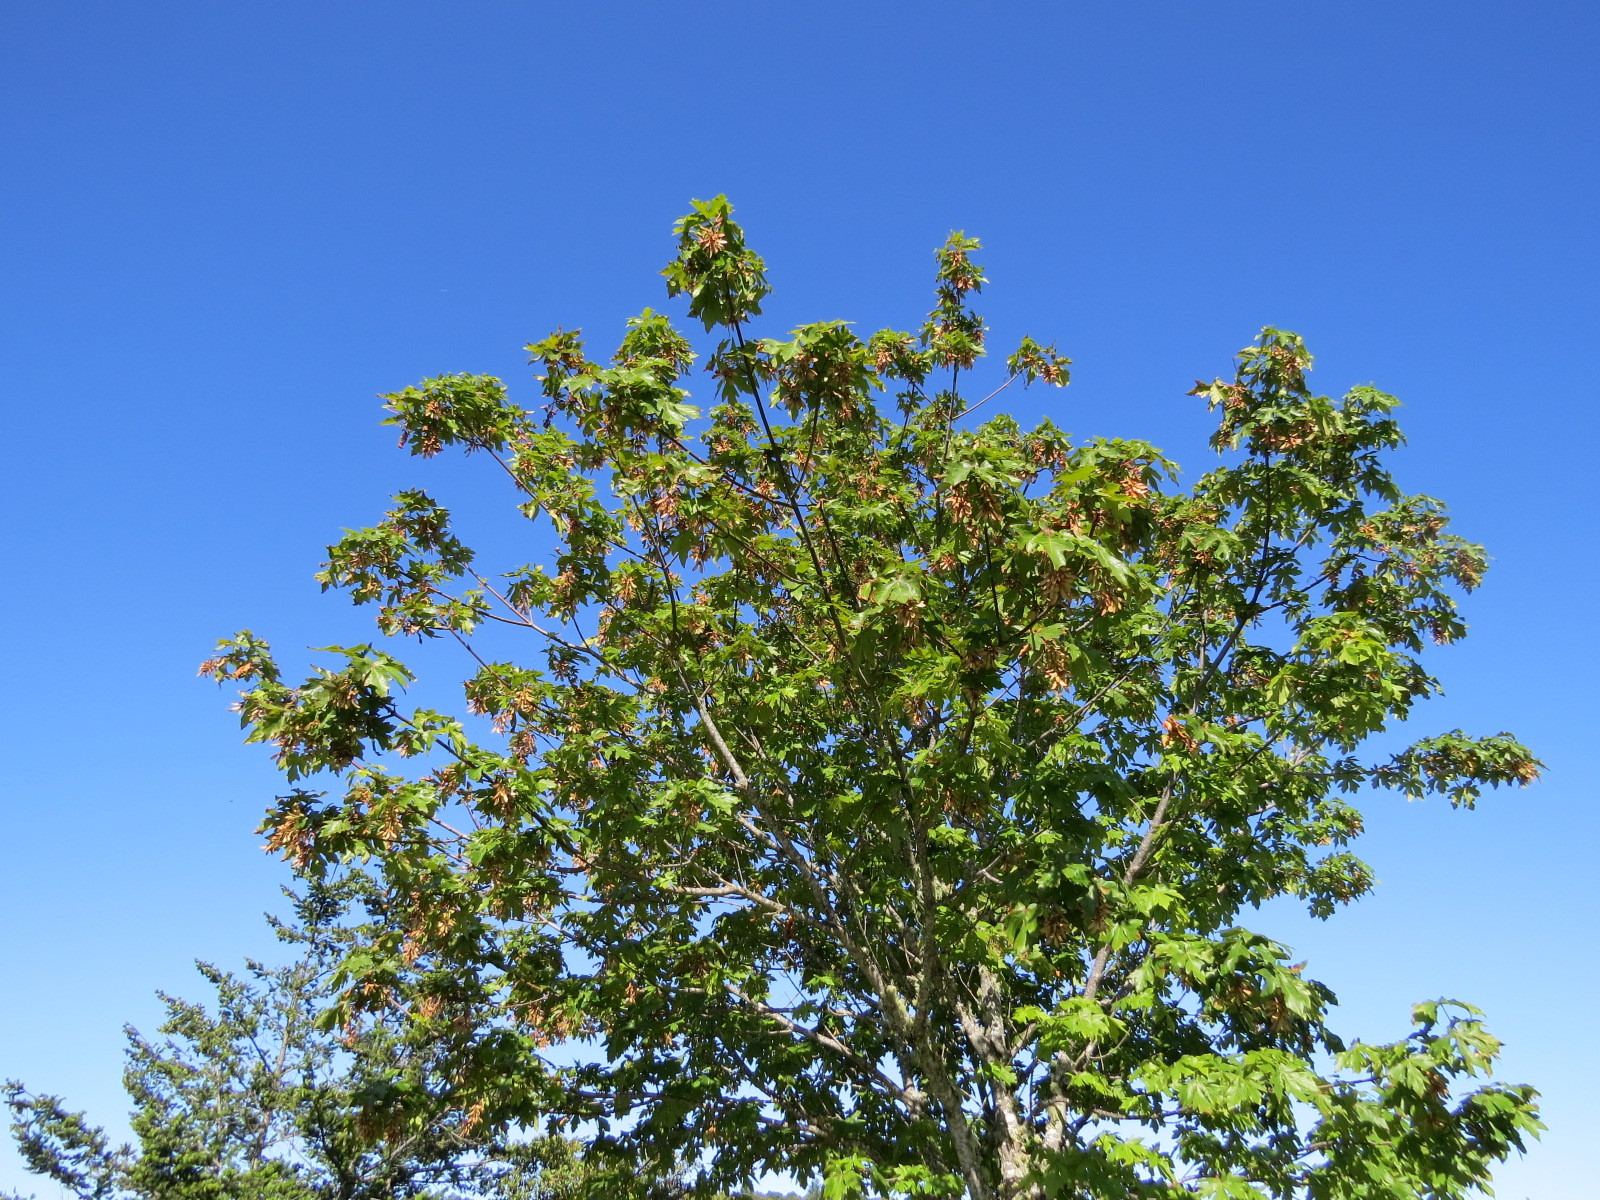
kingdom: Plantae
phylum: Tracheophyta
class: Magnoliopsida
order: Sapindales
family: Sapindaceae
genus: Acer
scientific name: Acer macrophyllum
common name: Oregon maple
